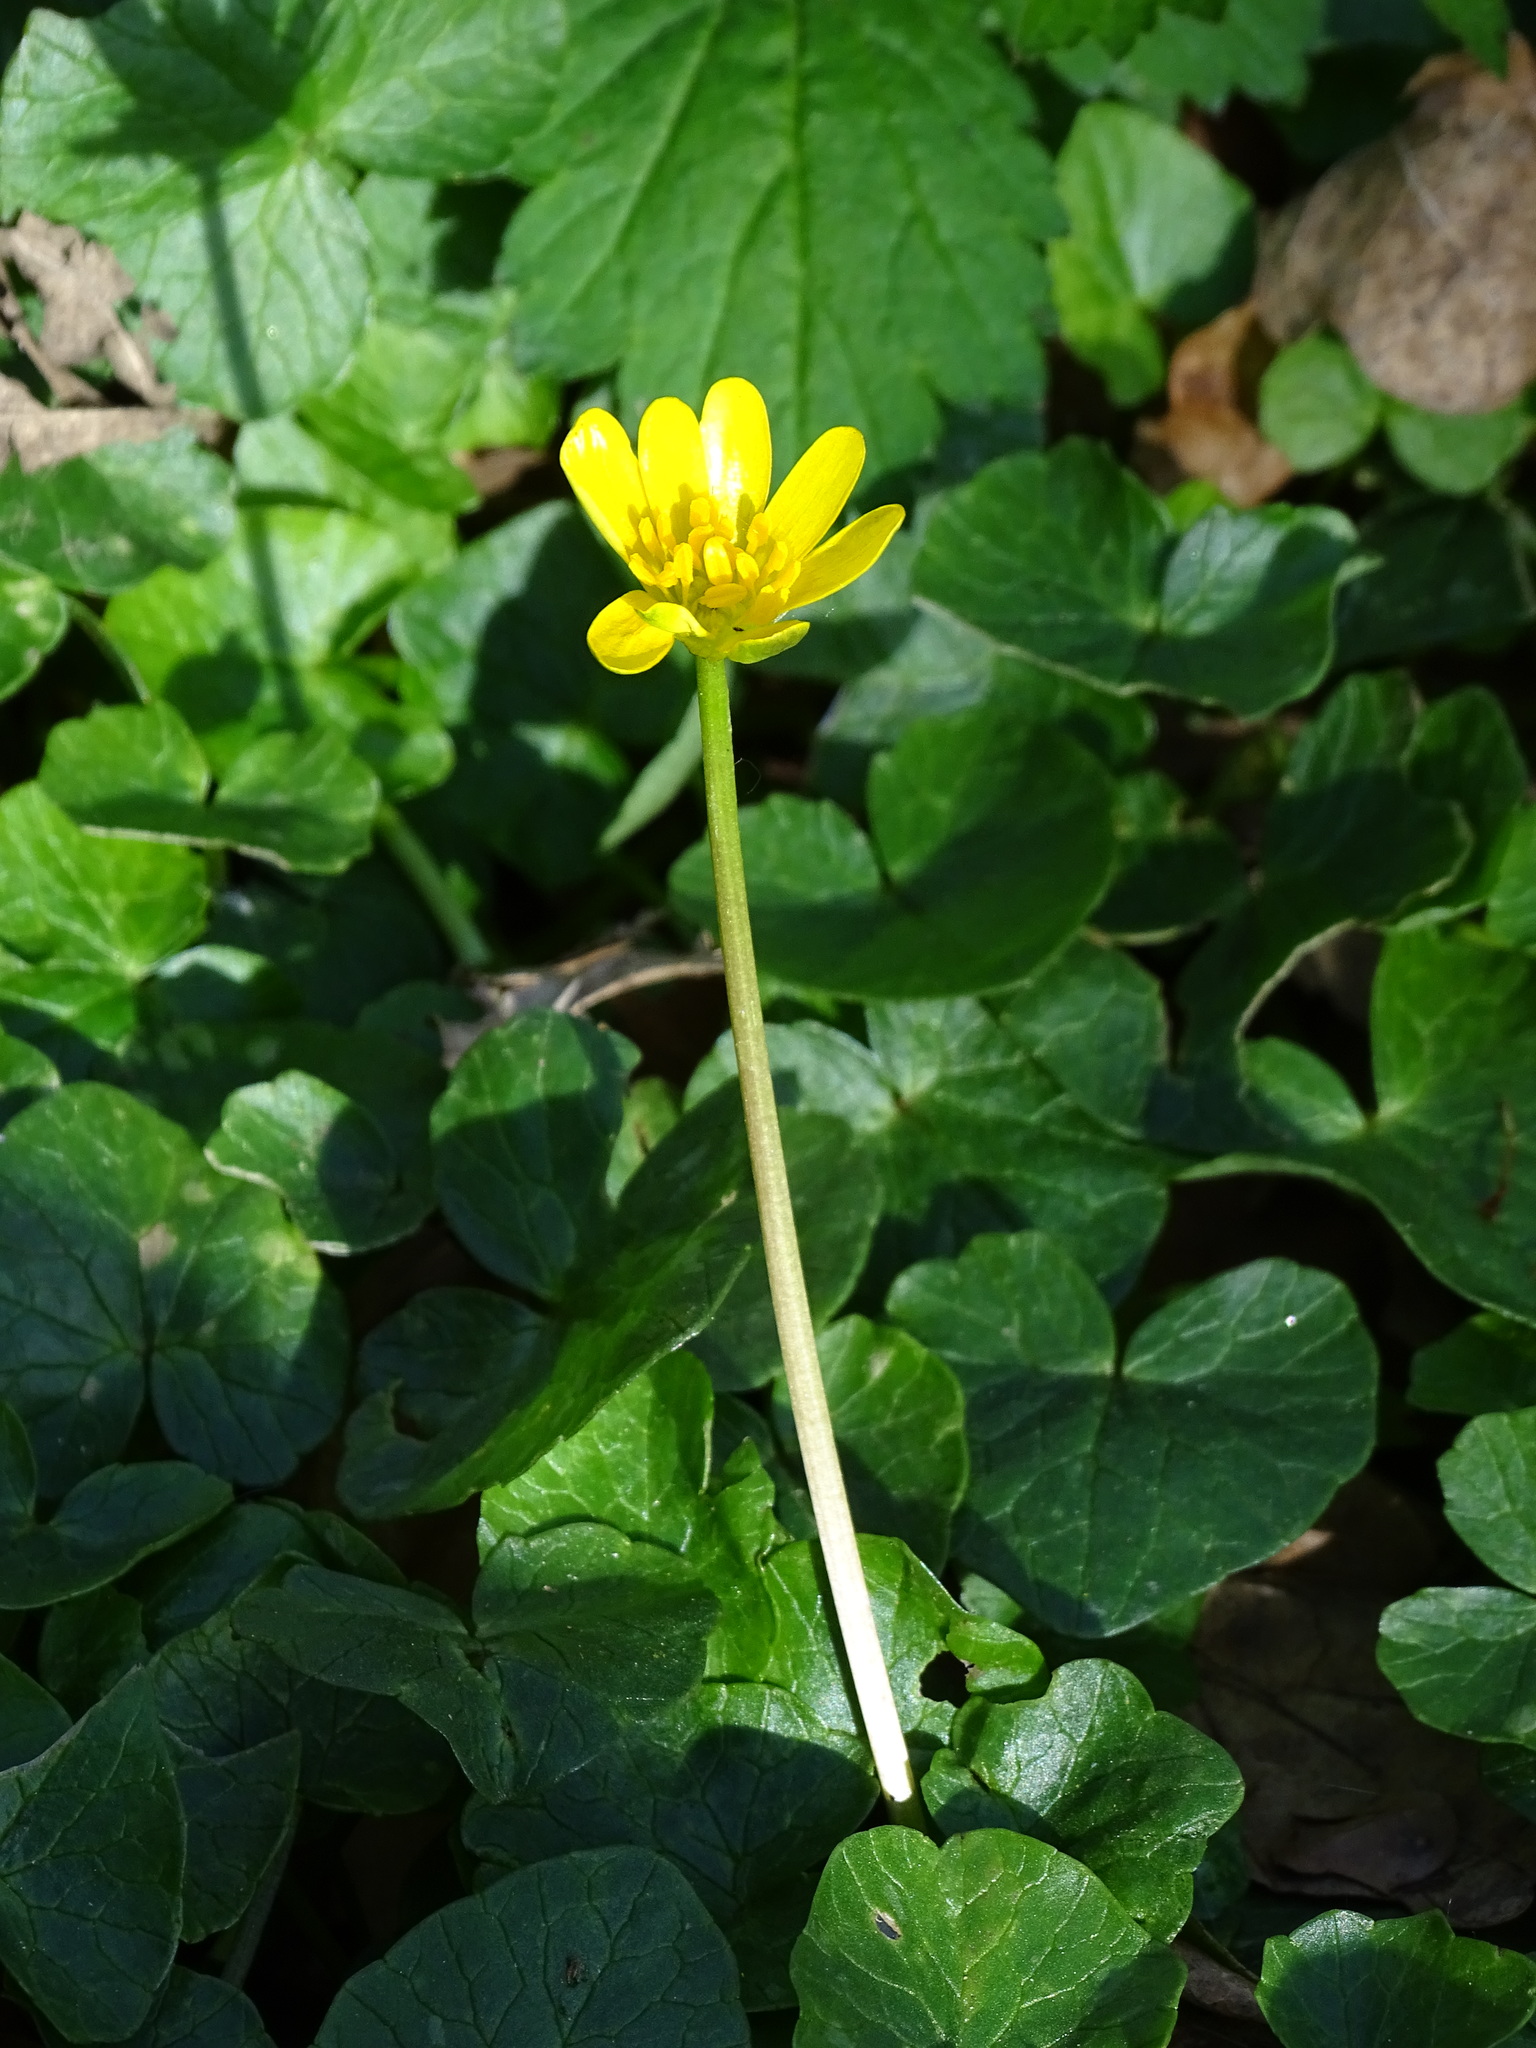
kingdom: Plantae
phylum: Tracheophyta
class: Magnoliopsida
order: Ranunculales
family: Ranunculaceae
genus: Ficaria
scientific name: Ficaria verna
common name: Lesser celandine
